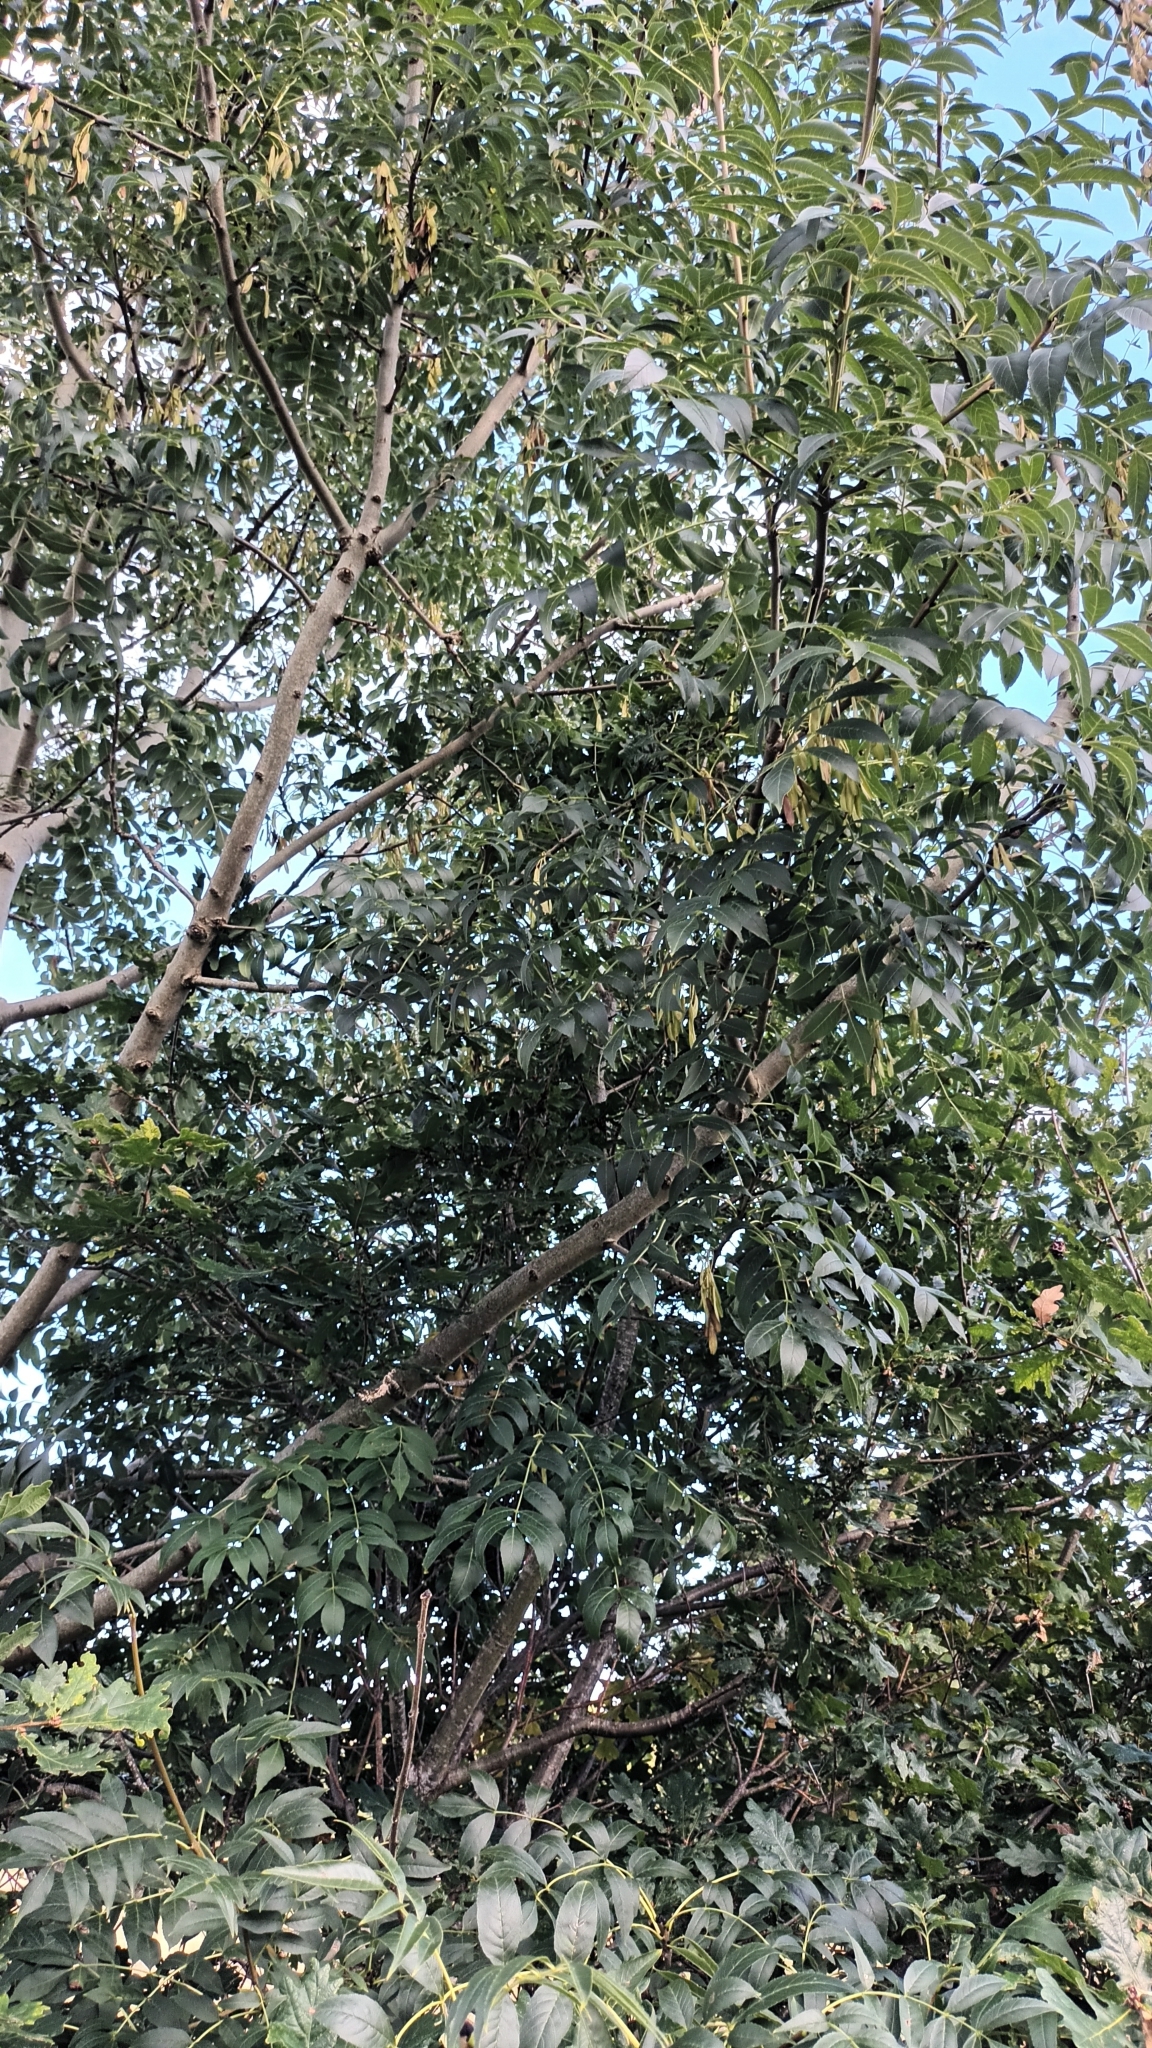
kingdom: Plantae
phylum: Tracheophyta
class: Magnoliopsida
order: Lamiales
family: Oleaceae
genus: Fraxinus
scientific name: Fraxinus excelsior
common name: European ash
